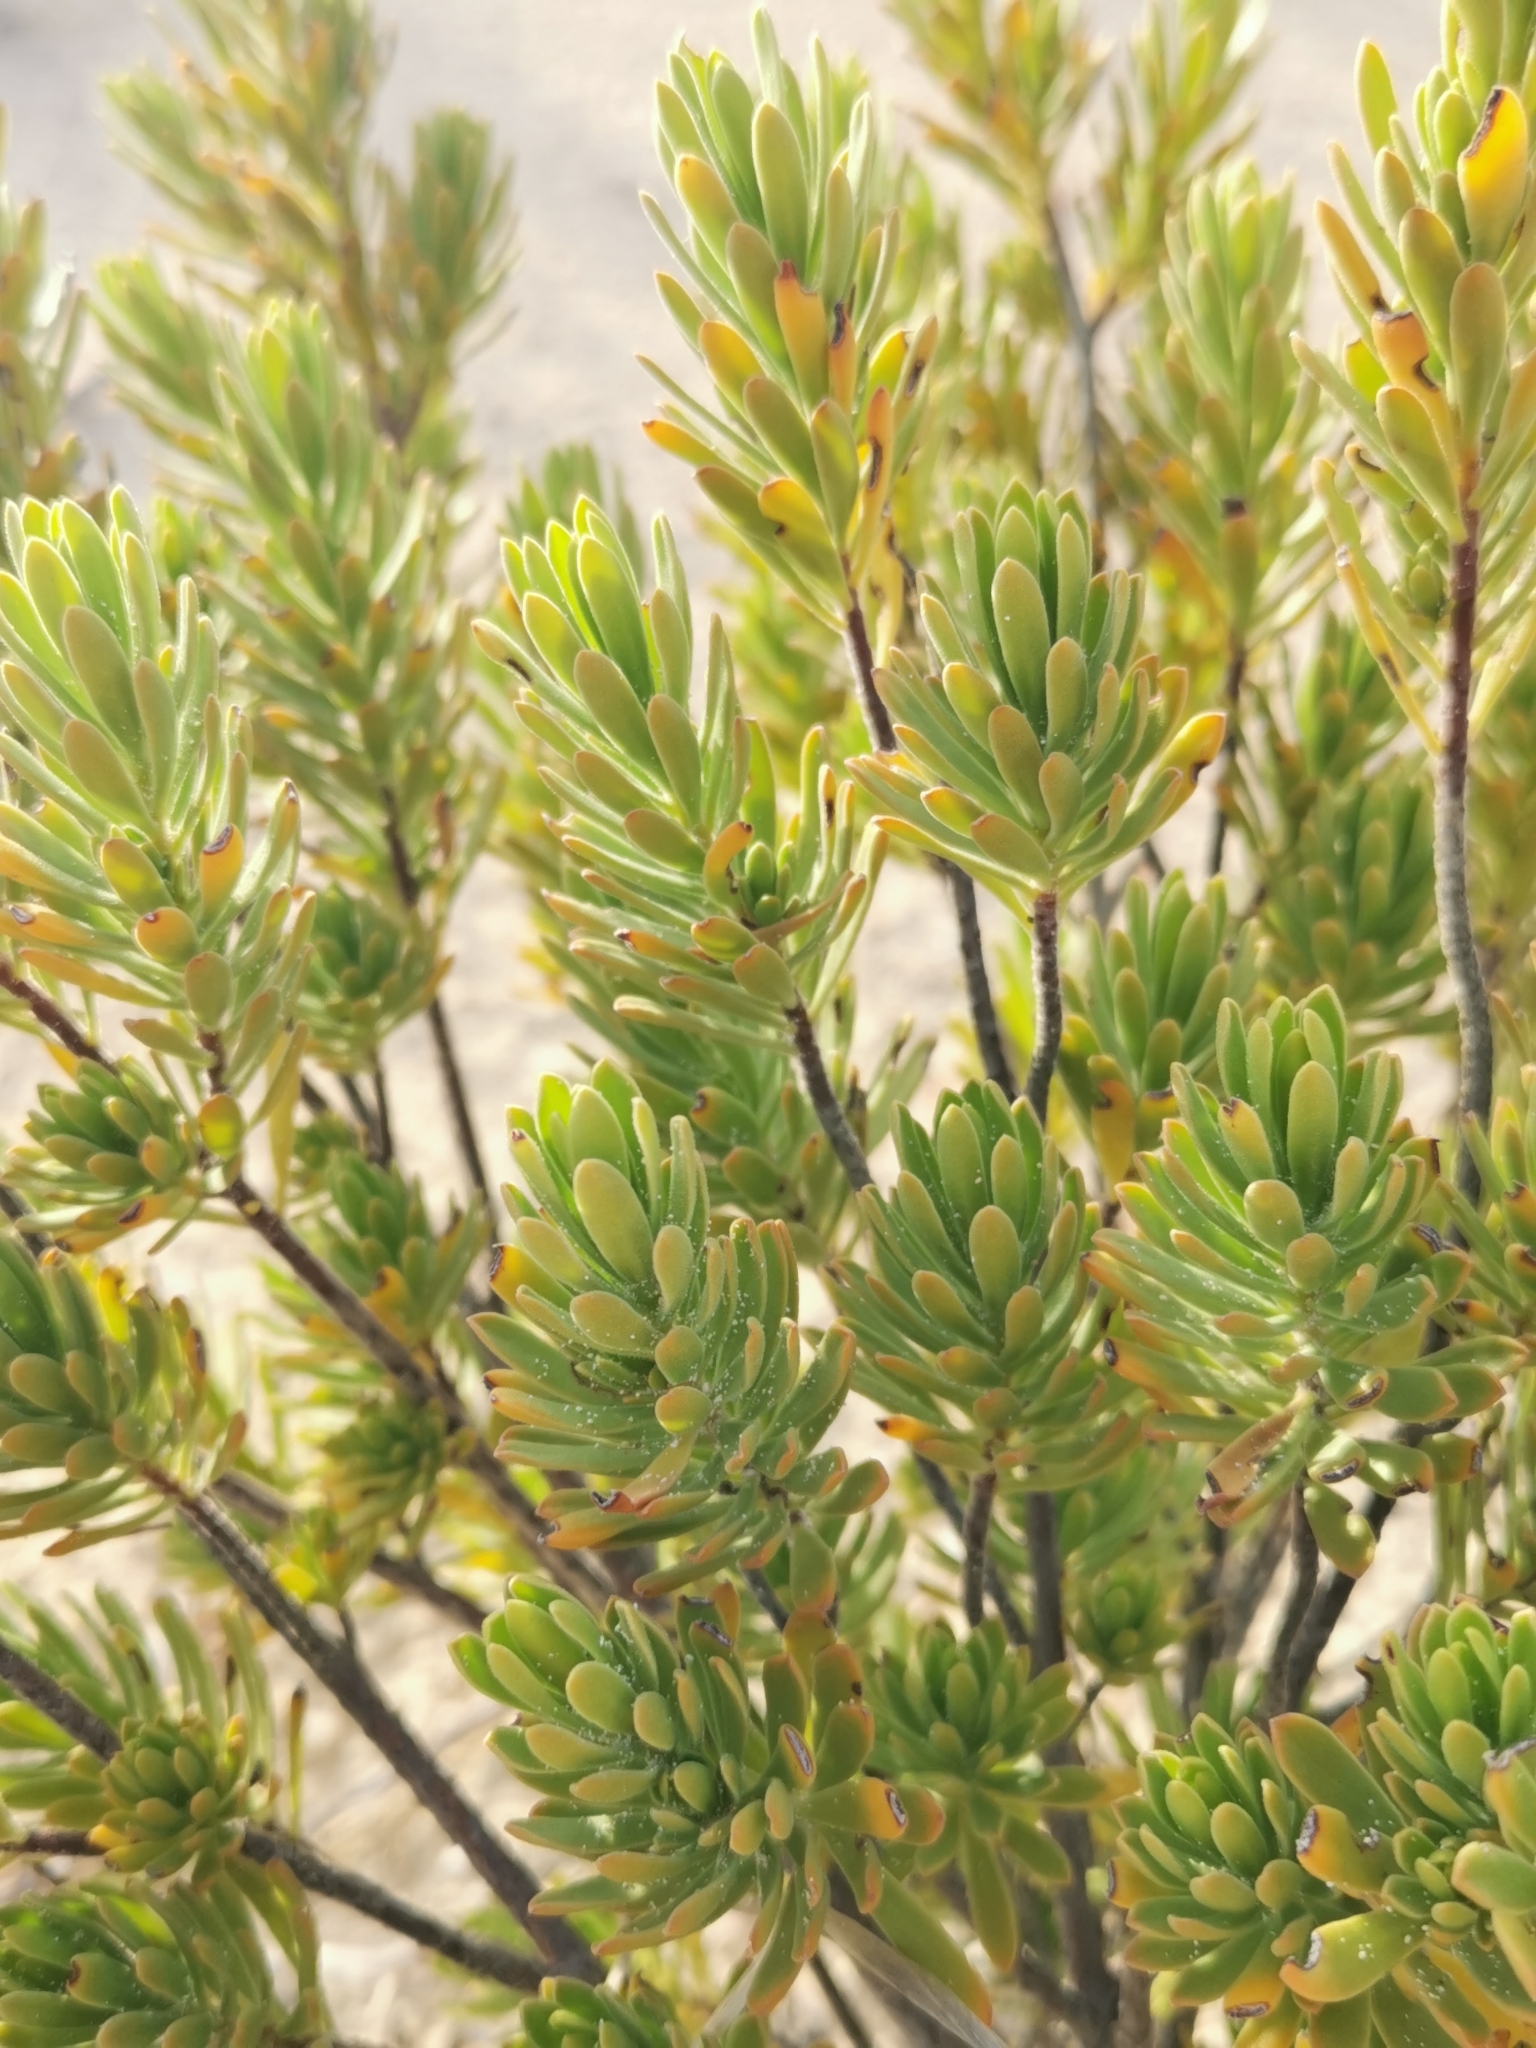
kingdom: Plantae
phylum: Tracheophyta
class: Magnoliopsida
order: Fabales
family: Surianaceae
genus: Suriana
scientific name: Suriana maritima
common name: Bay-cedar
